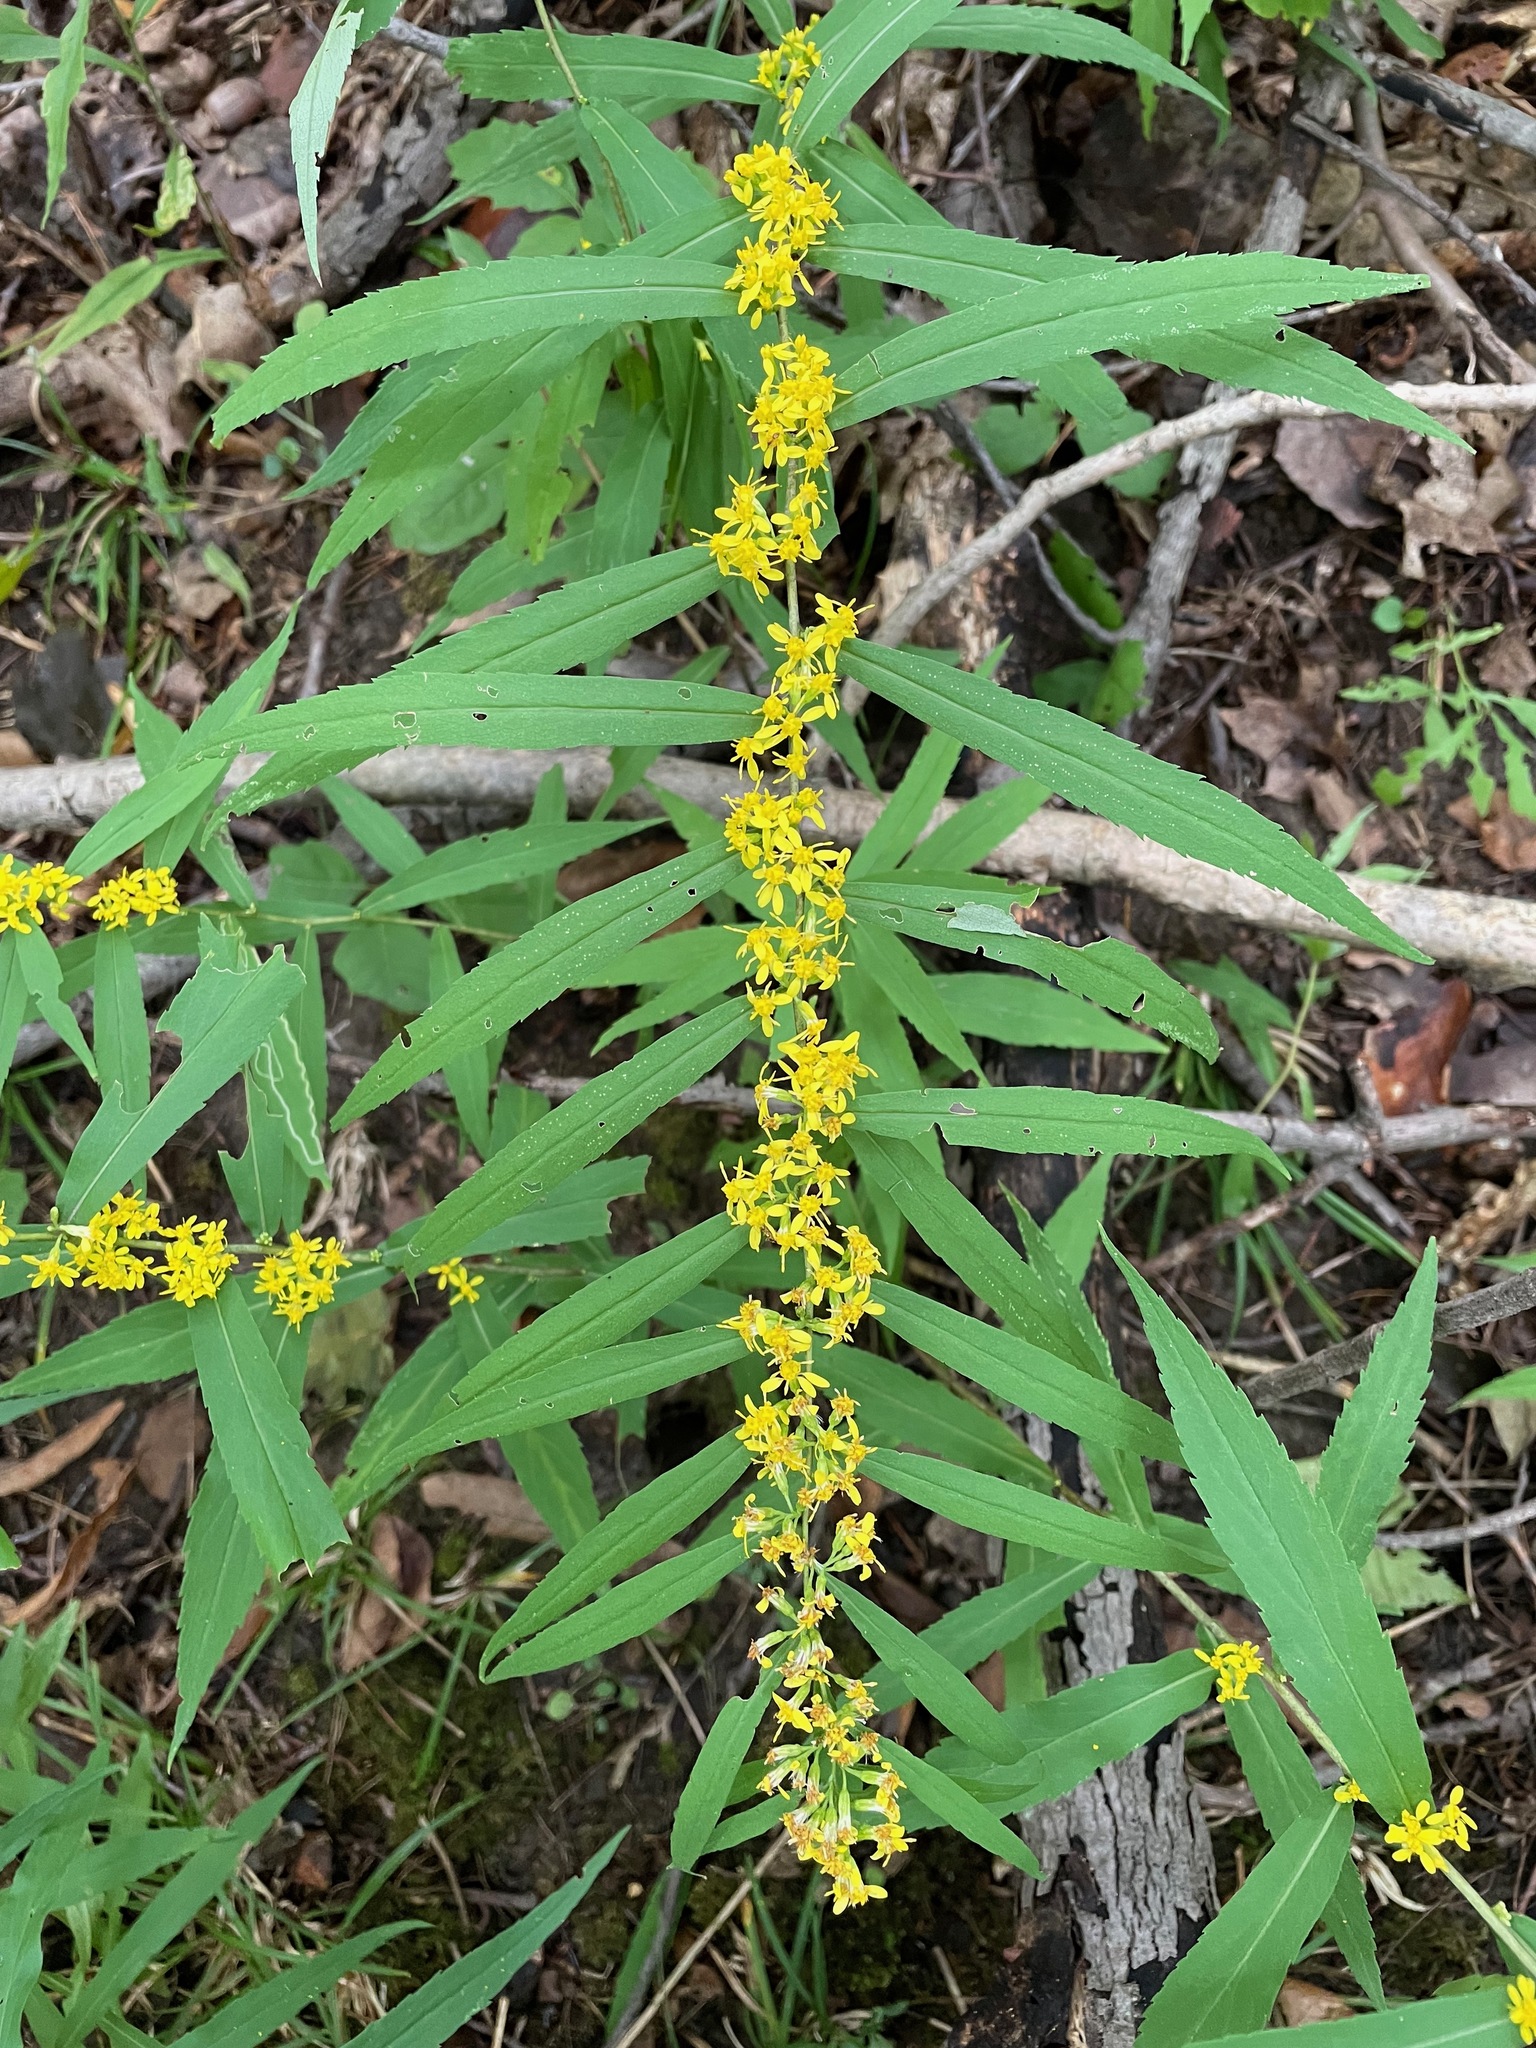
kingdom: Plantae
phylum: Tracheophyta
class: Magnoliopsida
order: Asterales
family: Asteraceae
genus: Solidago
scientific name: Solidago caesia
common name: Woodland goldenrod
